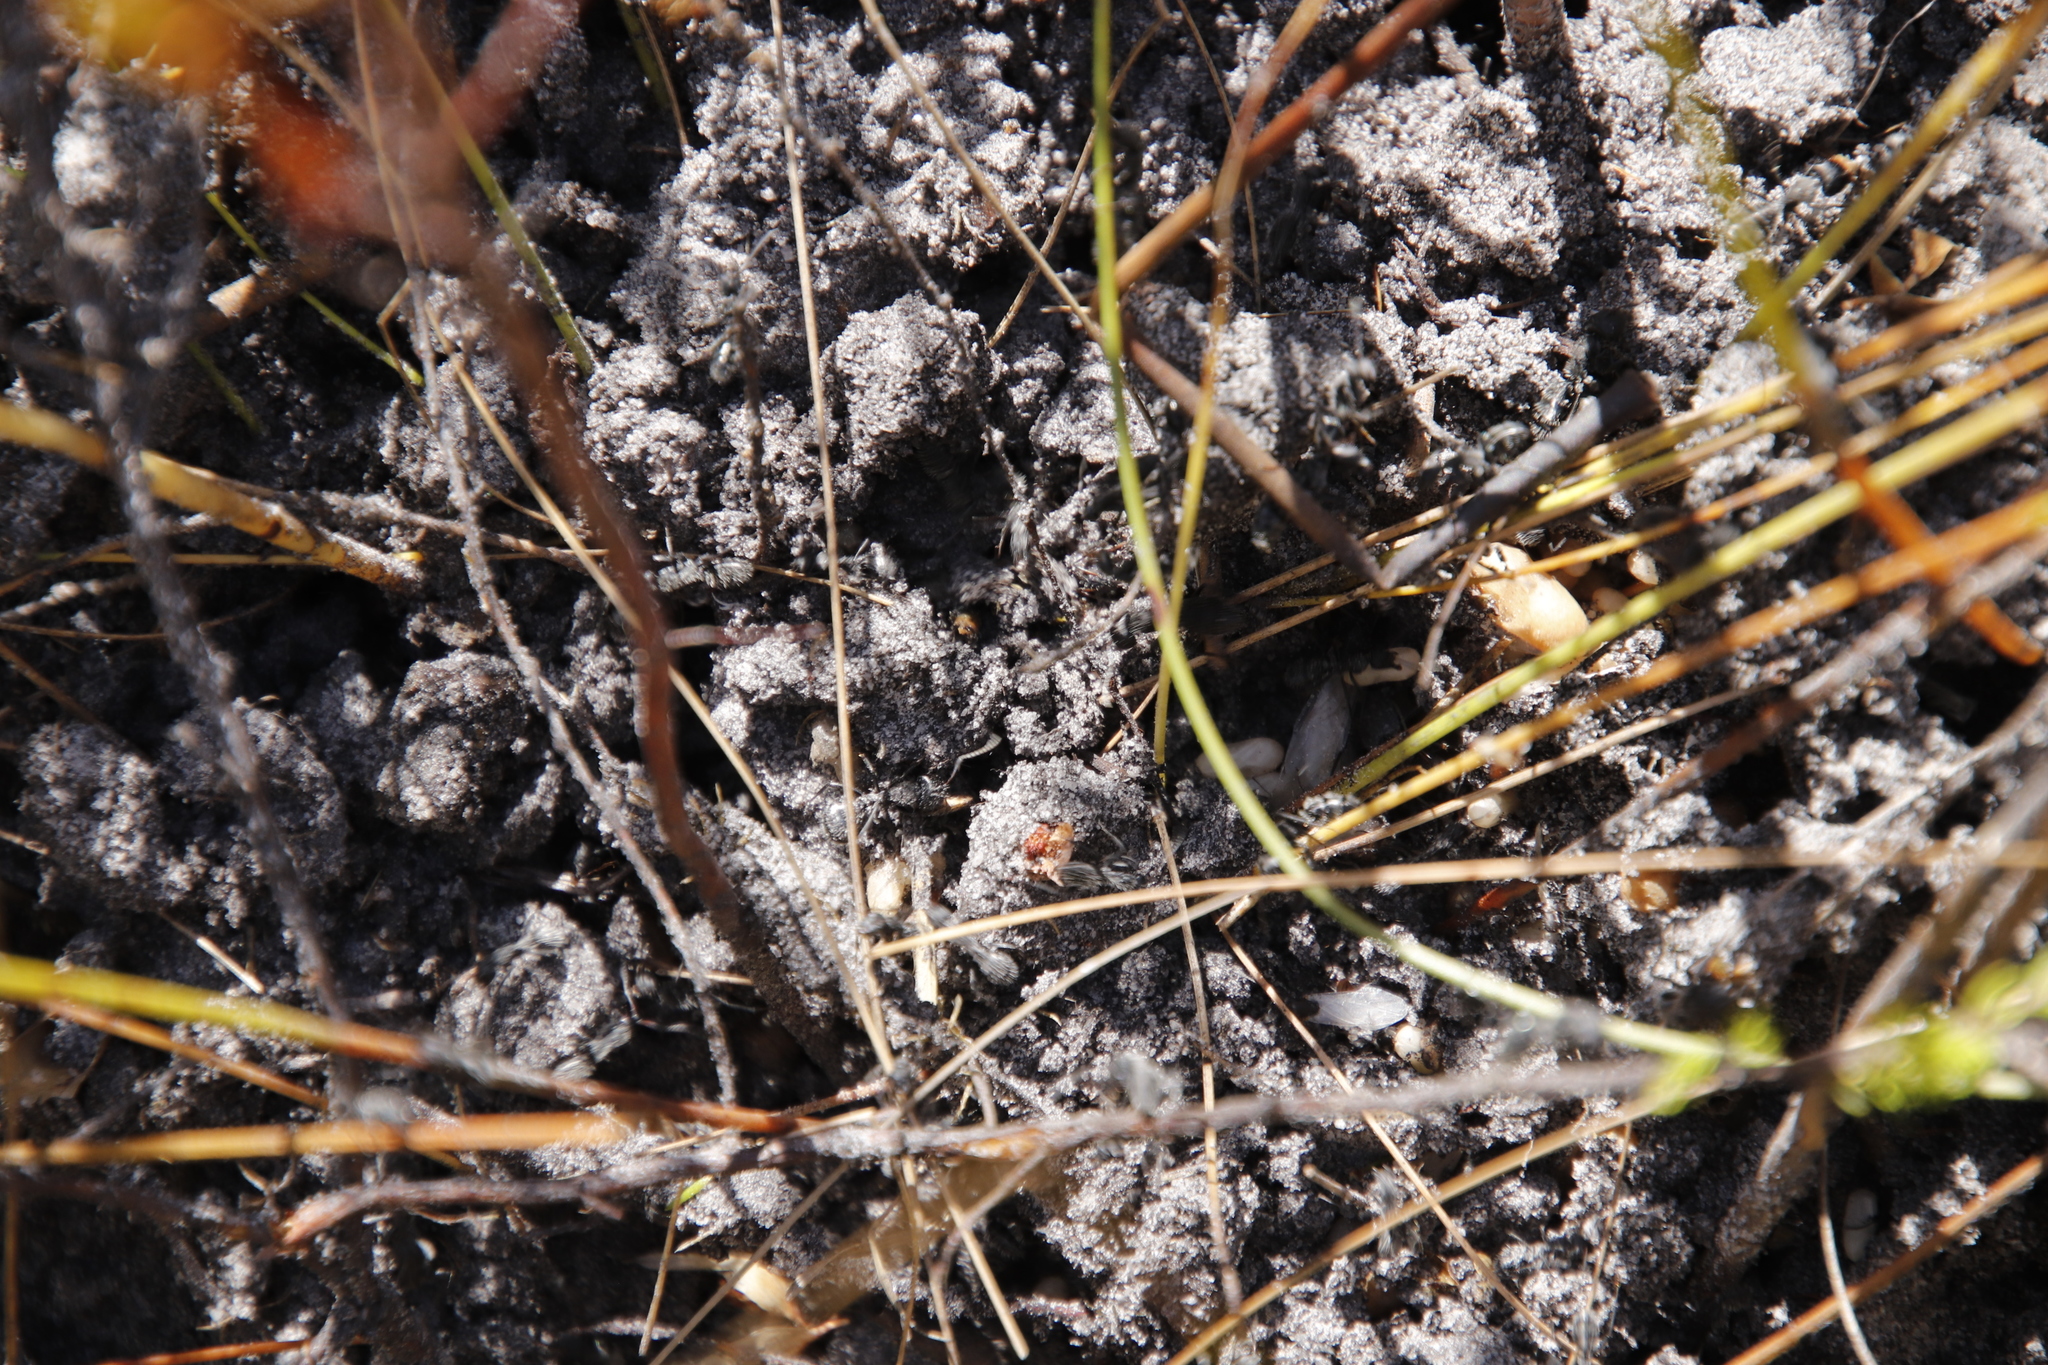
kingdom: Animalia
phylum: Arthropoda
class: Insecta
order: Hymenoptera
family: Formicidae
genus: Camponotus
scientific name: Camponotus niveosetosus
